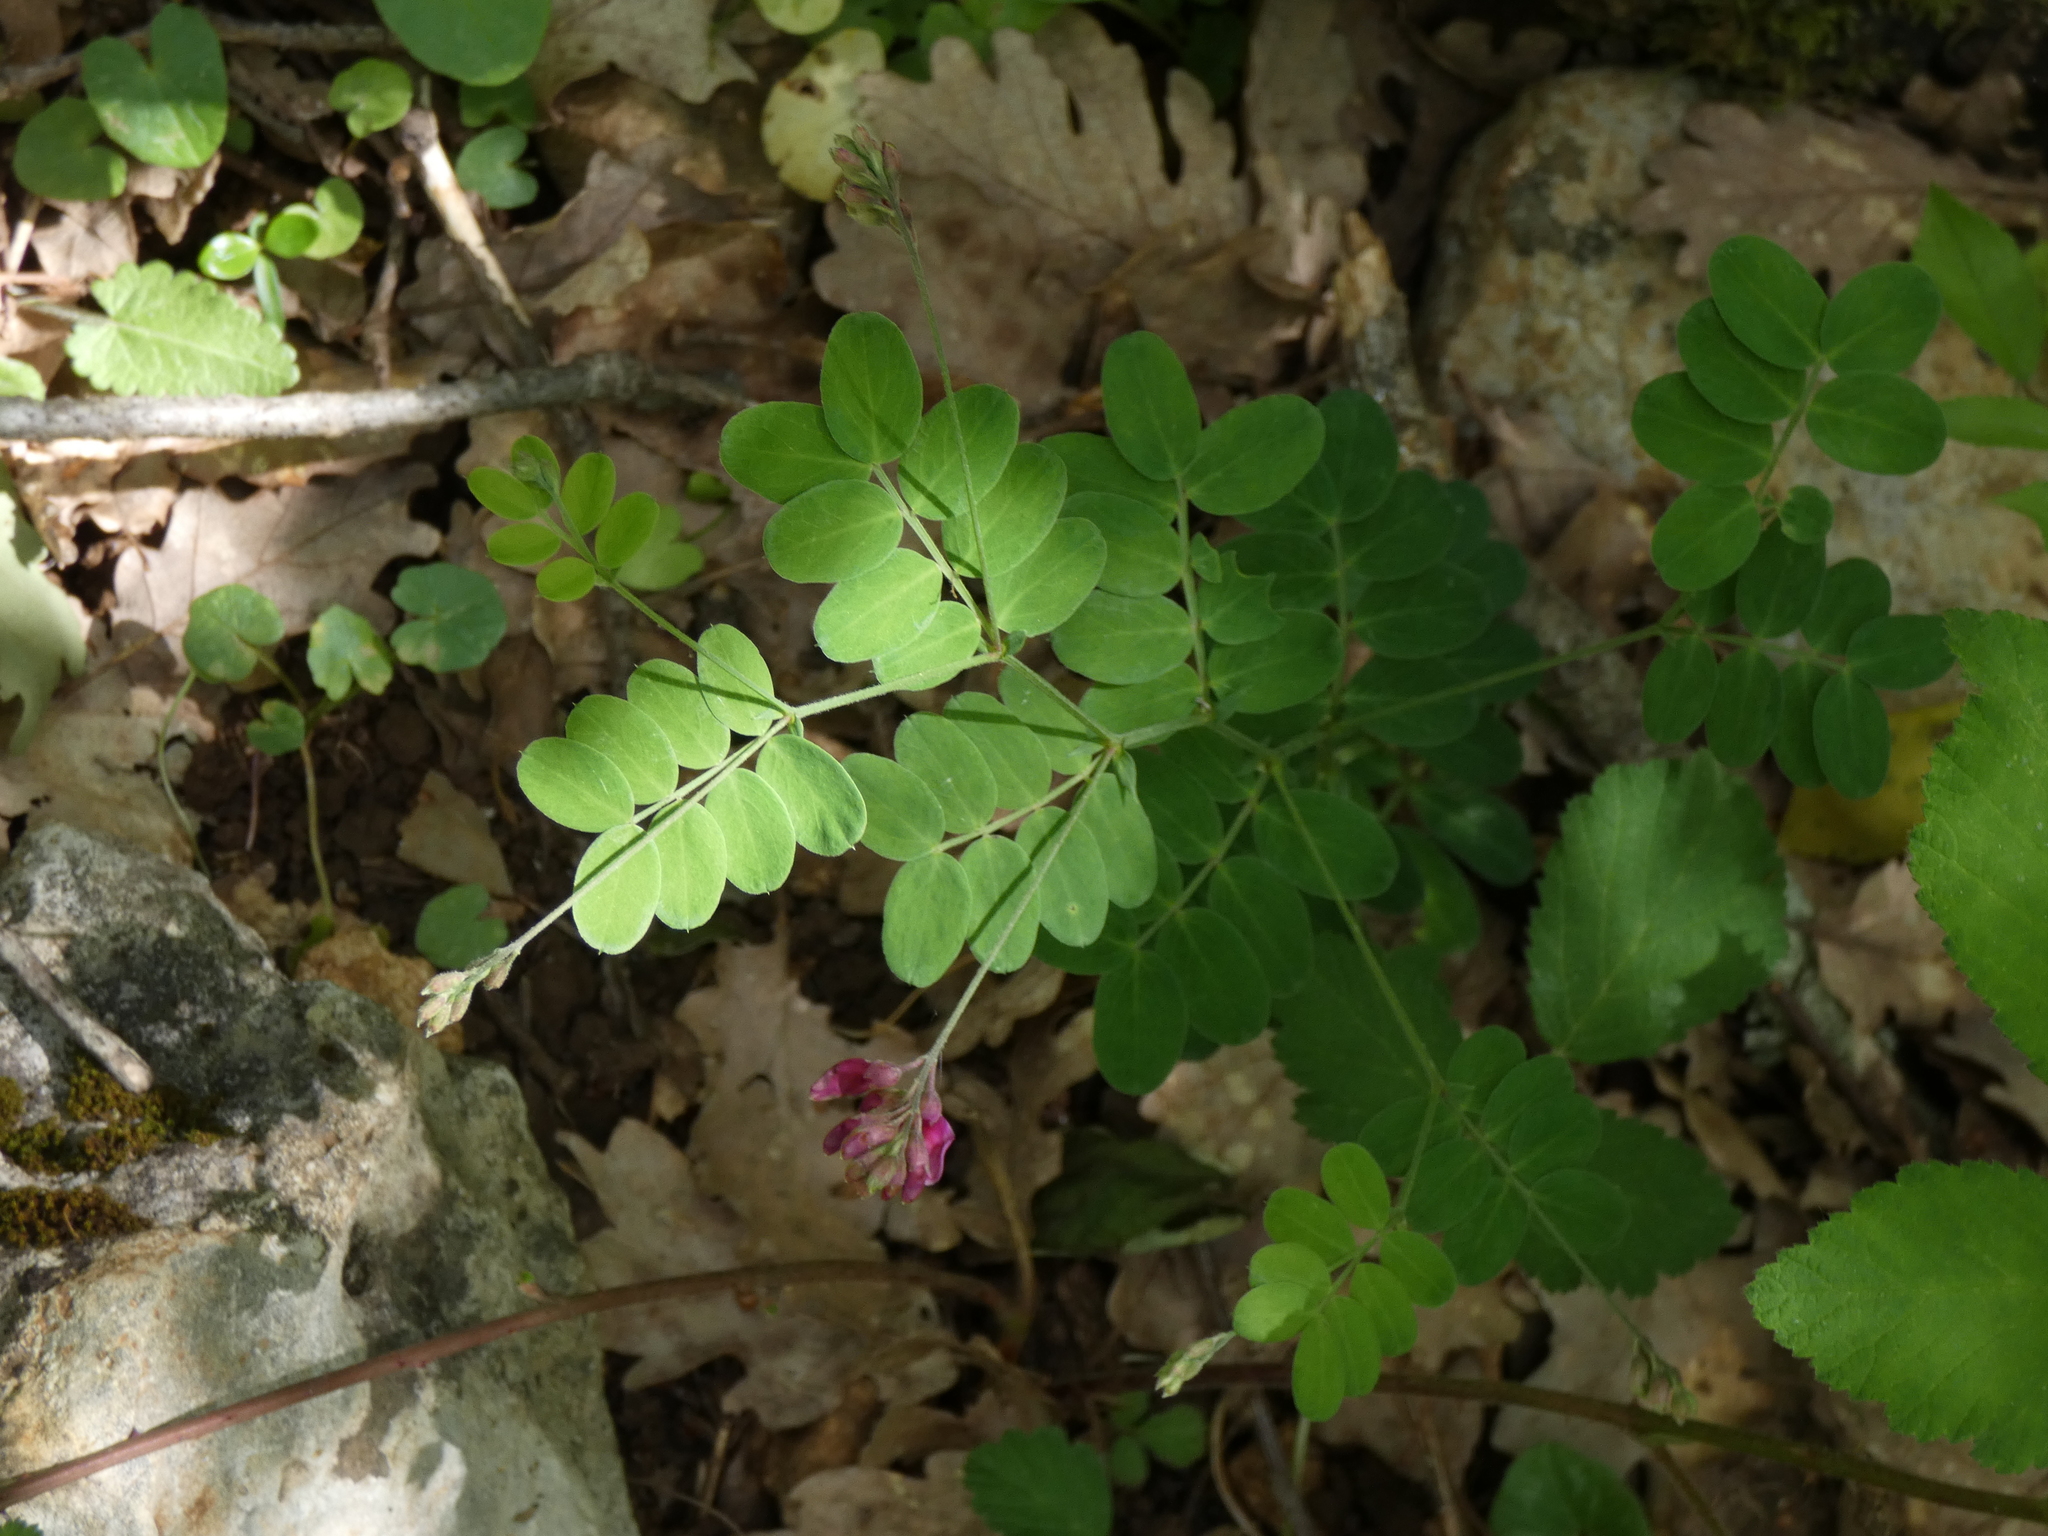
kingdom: Plantae
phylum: Tracheophyta
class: Magnoliopsida
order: Fabales
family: Fabaceae
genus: Lathyrus
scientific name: Lathyrus niger
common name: Black pea
